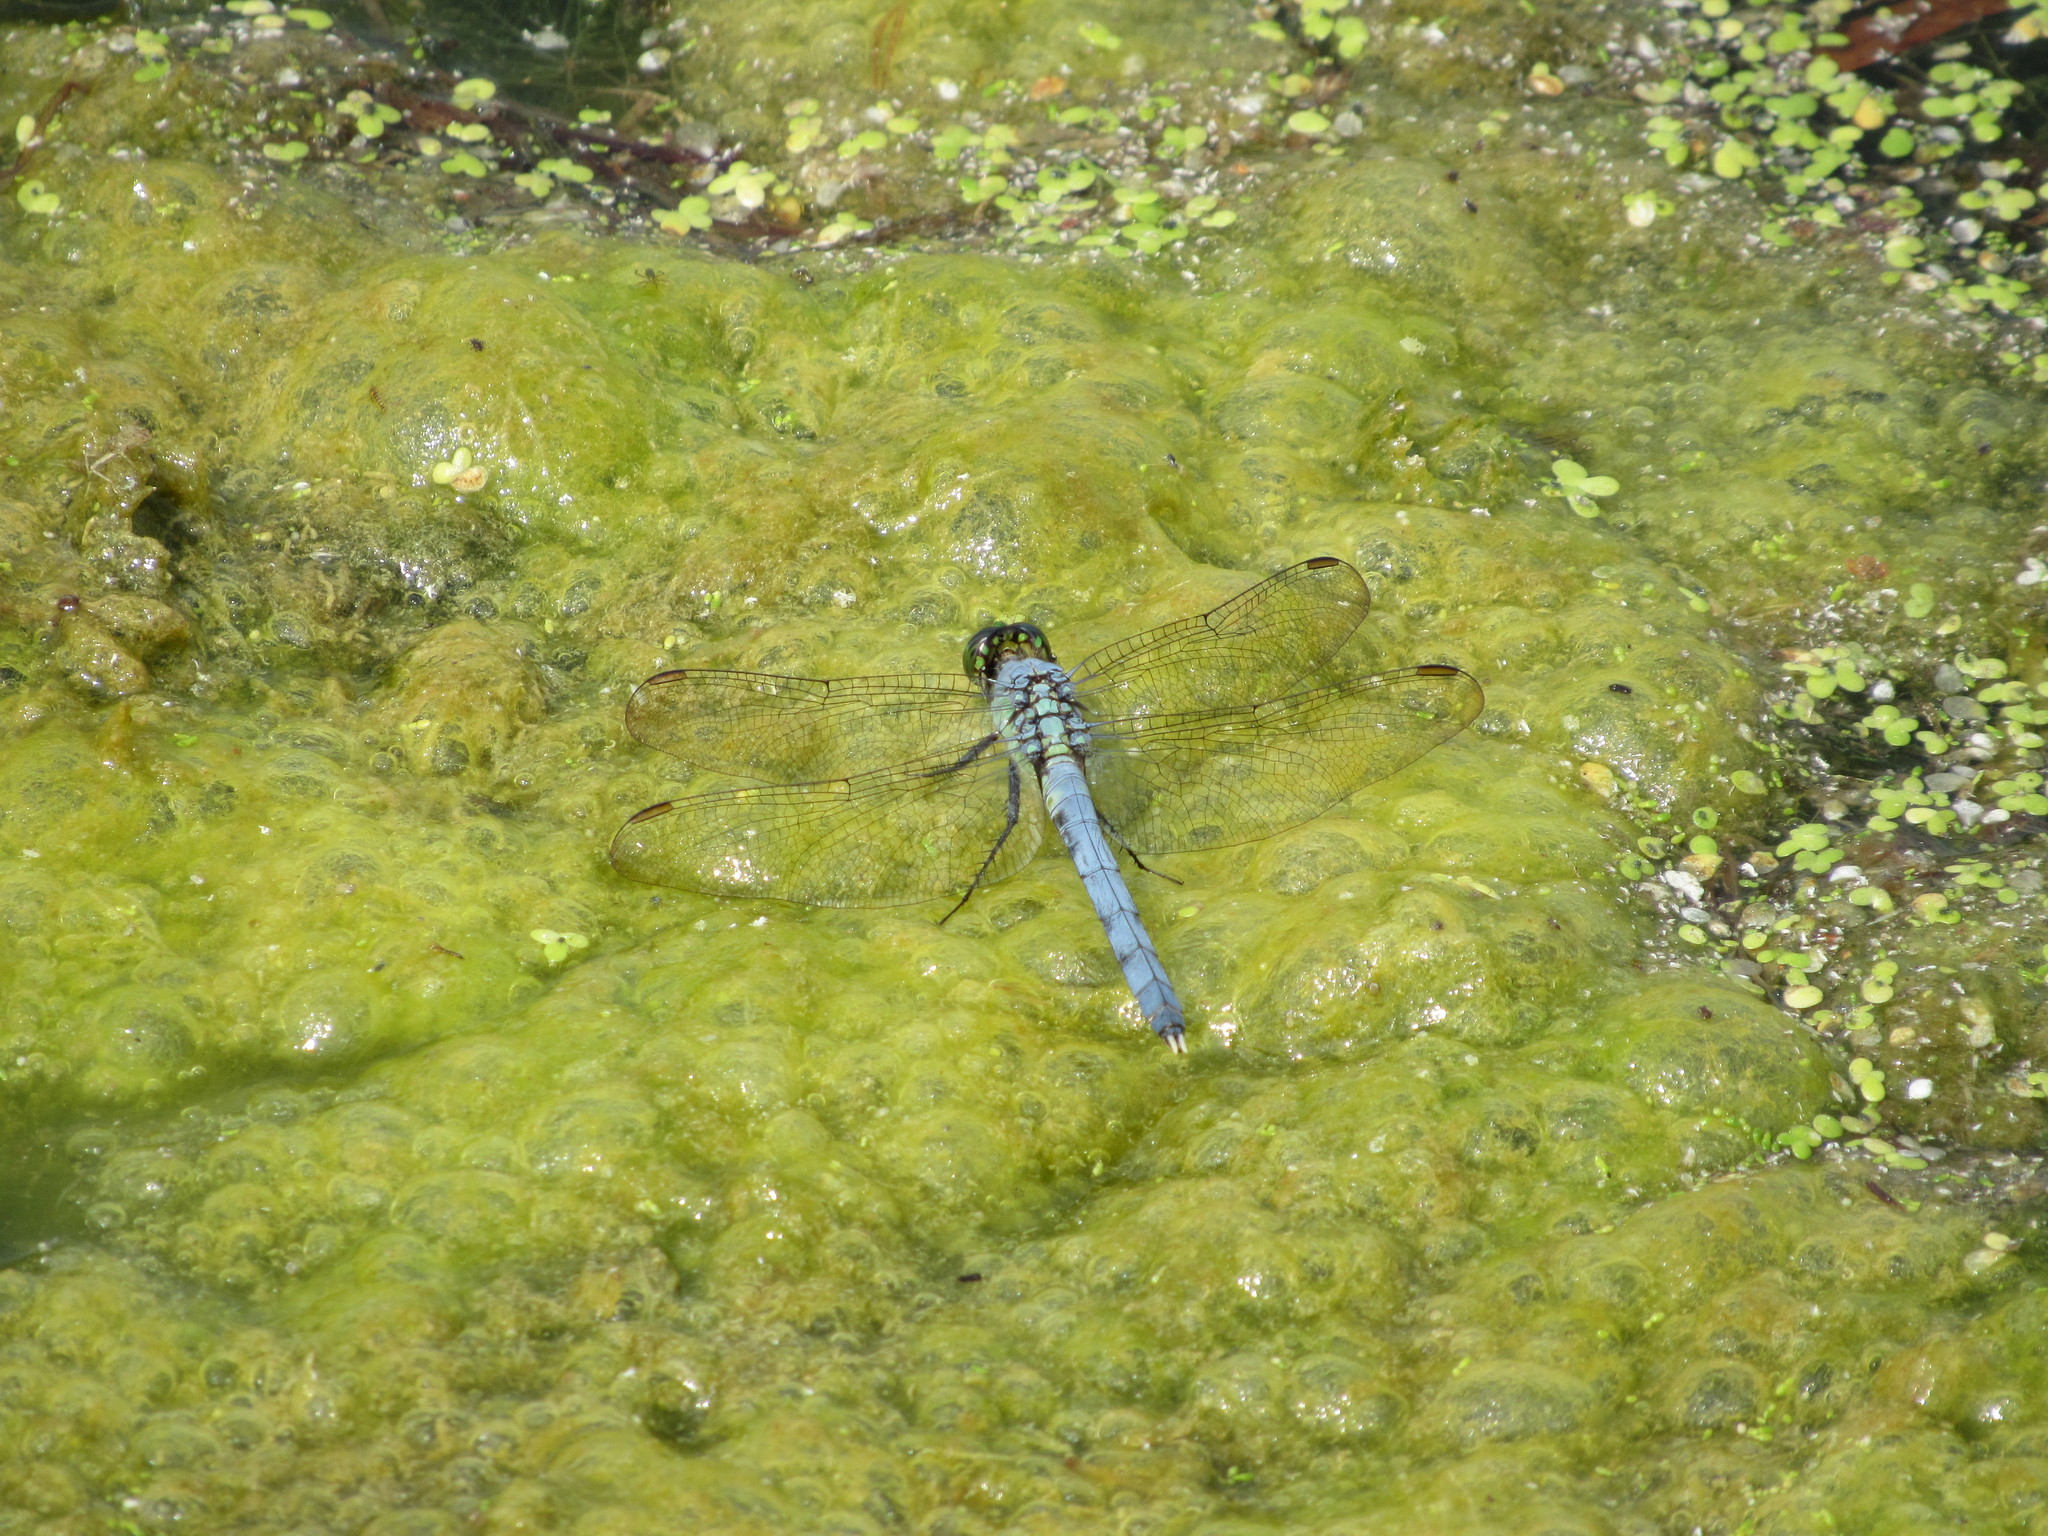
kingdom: Animalia
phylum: Arthropoda
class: Insecta
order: Odonata
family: Libellulidae
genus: Erythemis
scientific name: Erythemis simplicicollis
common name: Eastern pondhawk
